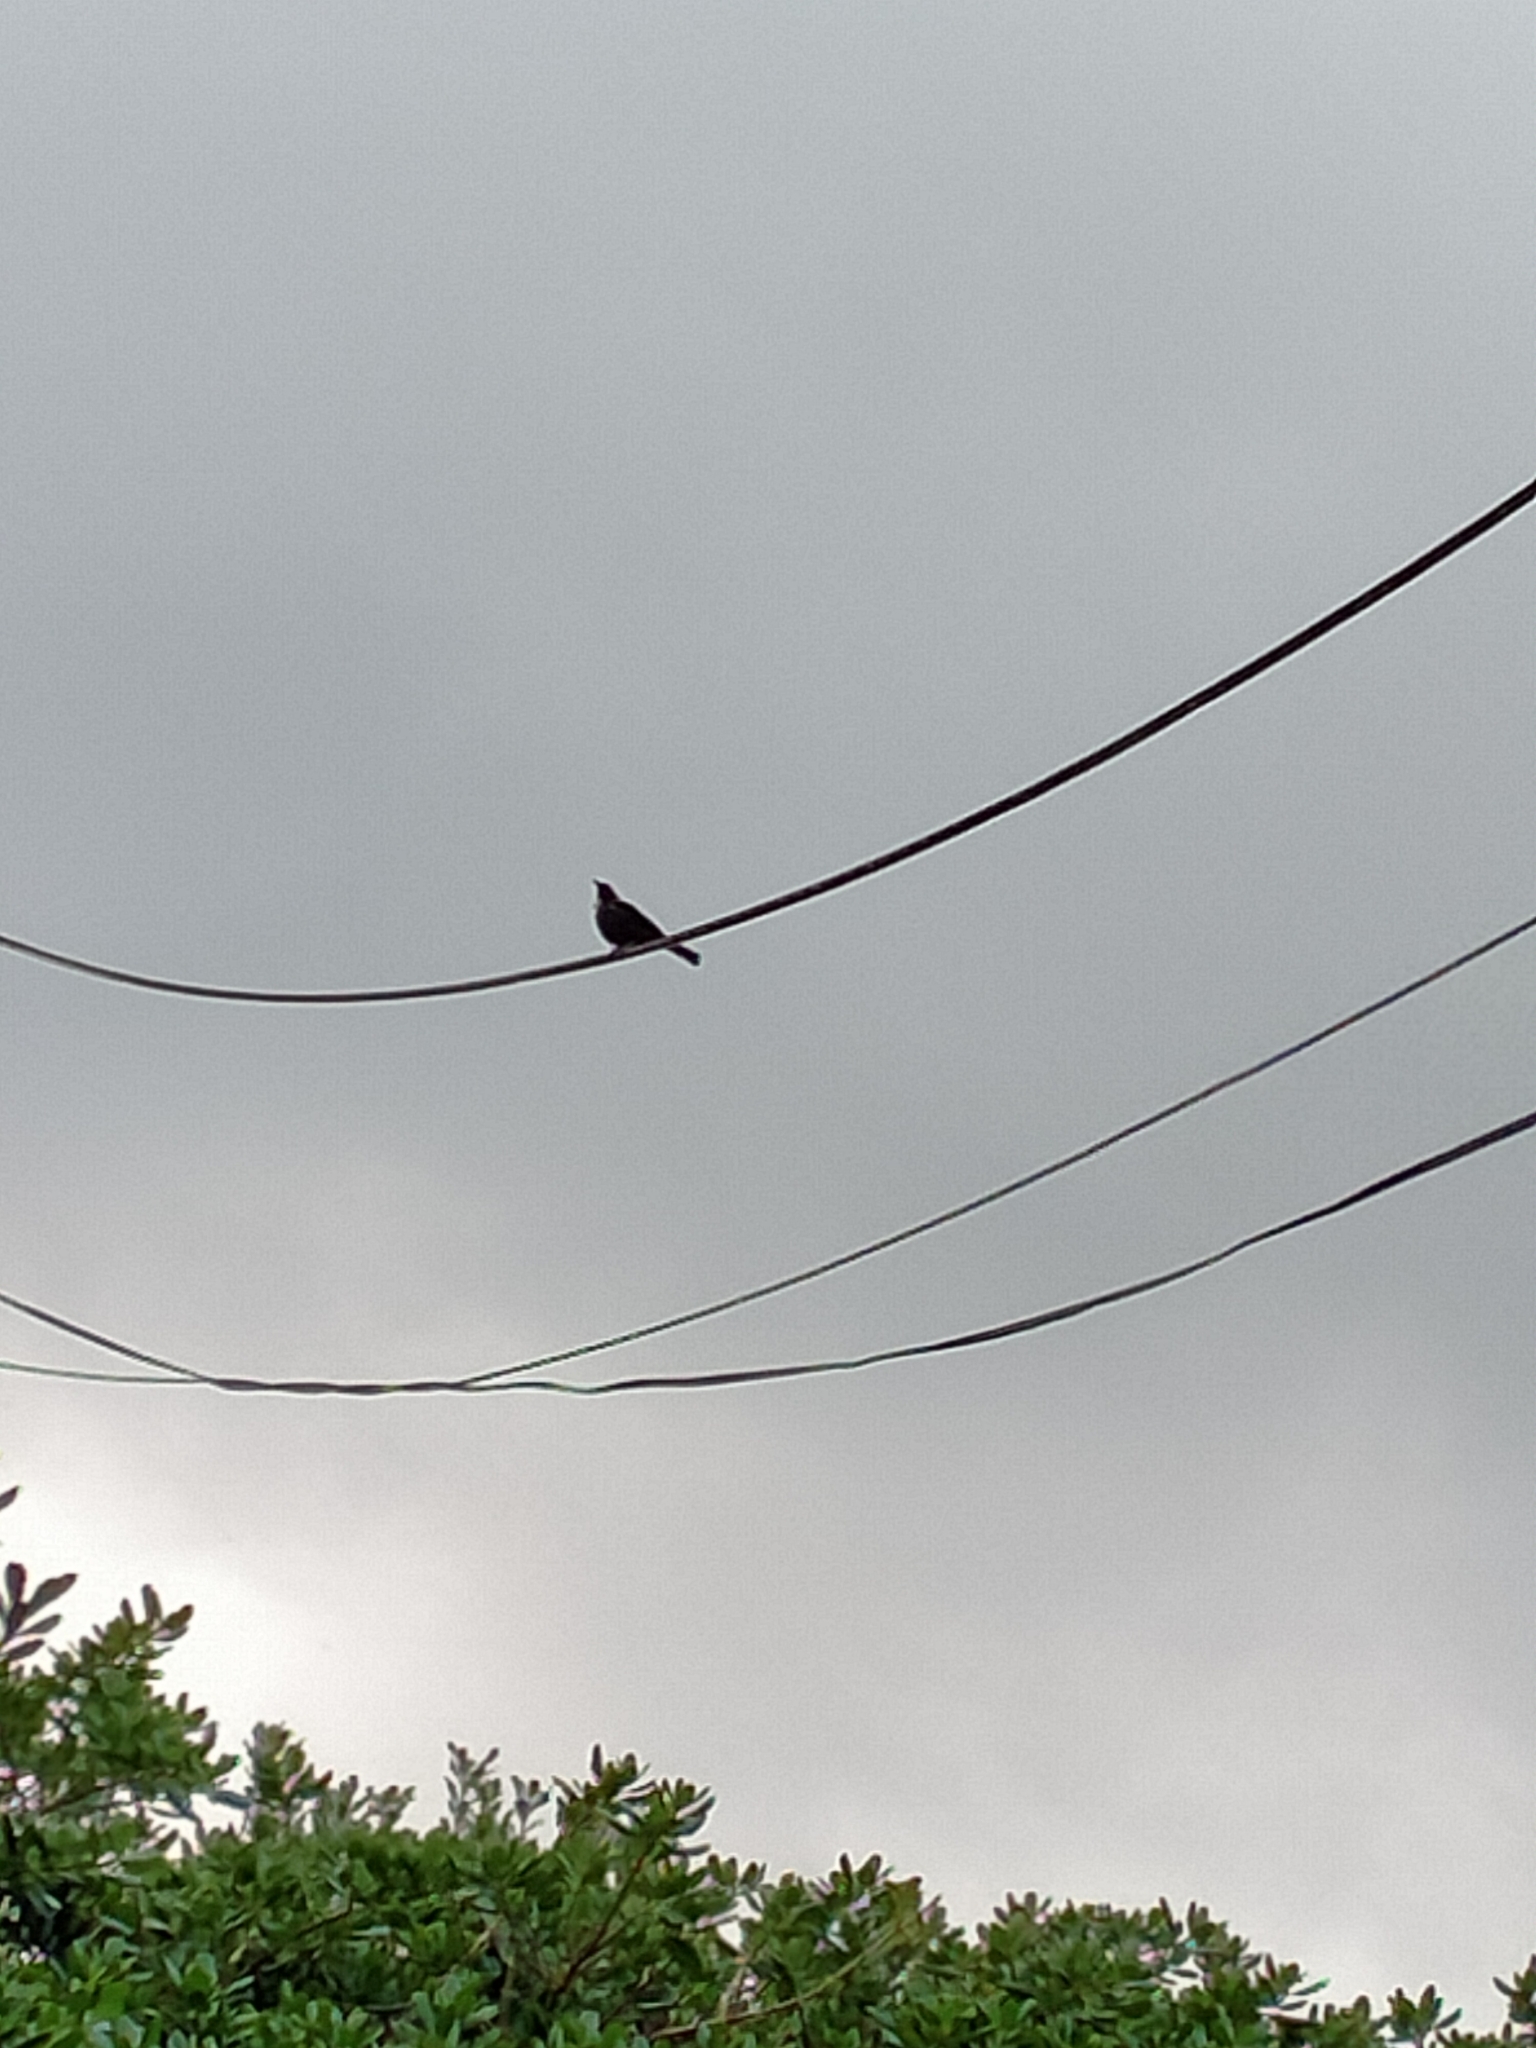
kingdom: Animalia
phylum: Chordata
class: Aves
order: Passeriformes
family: Meliphagidae
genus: Prosthemadera
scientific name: Prosthemadera novaeseelandiae
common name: Tui
